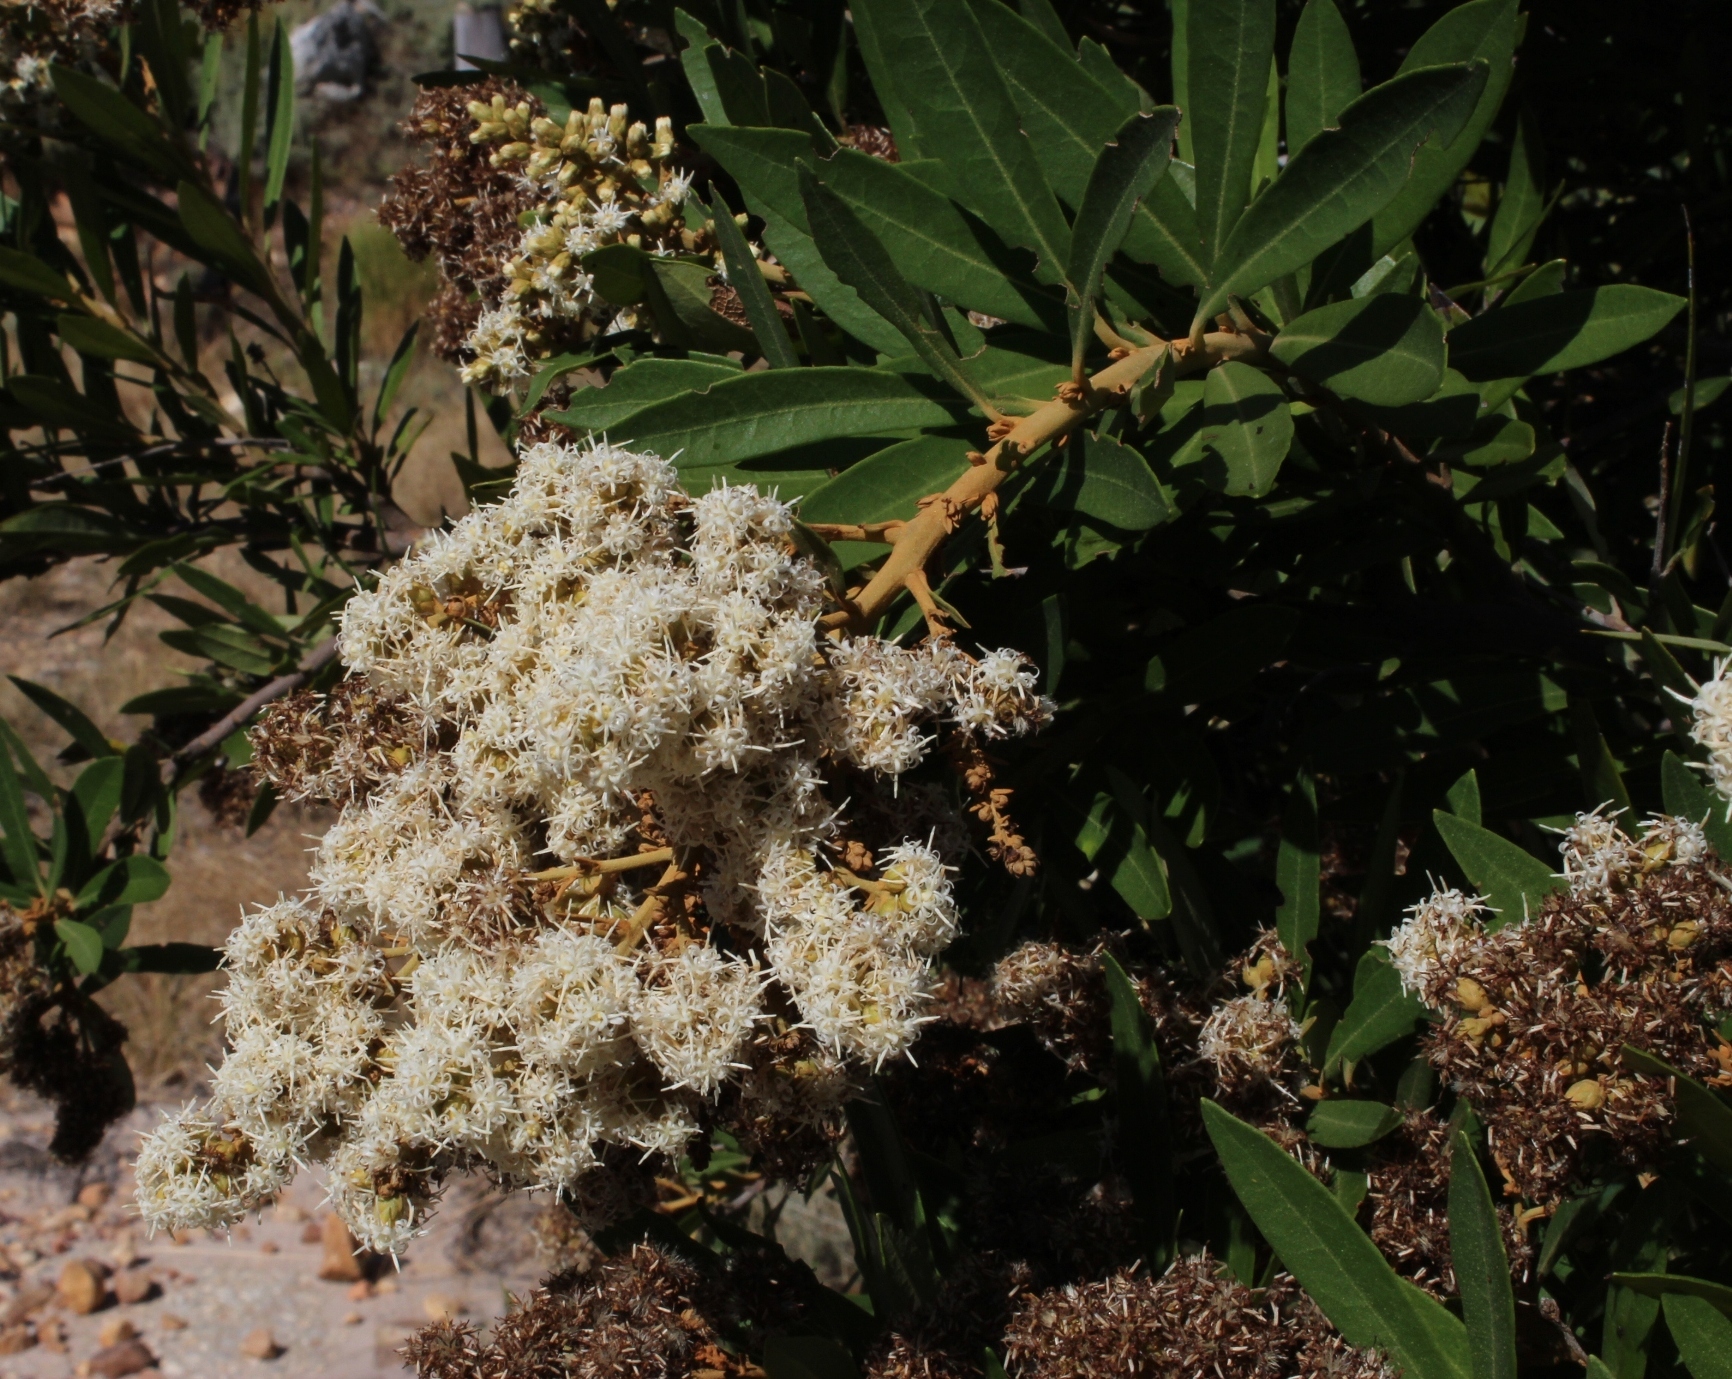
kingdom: Plantae
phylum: Tracheophyta
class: Magnoliopsida
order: Asterales
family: Asteraceae
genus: Brachylaena
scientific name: Brachylaena neriifolia
